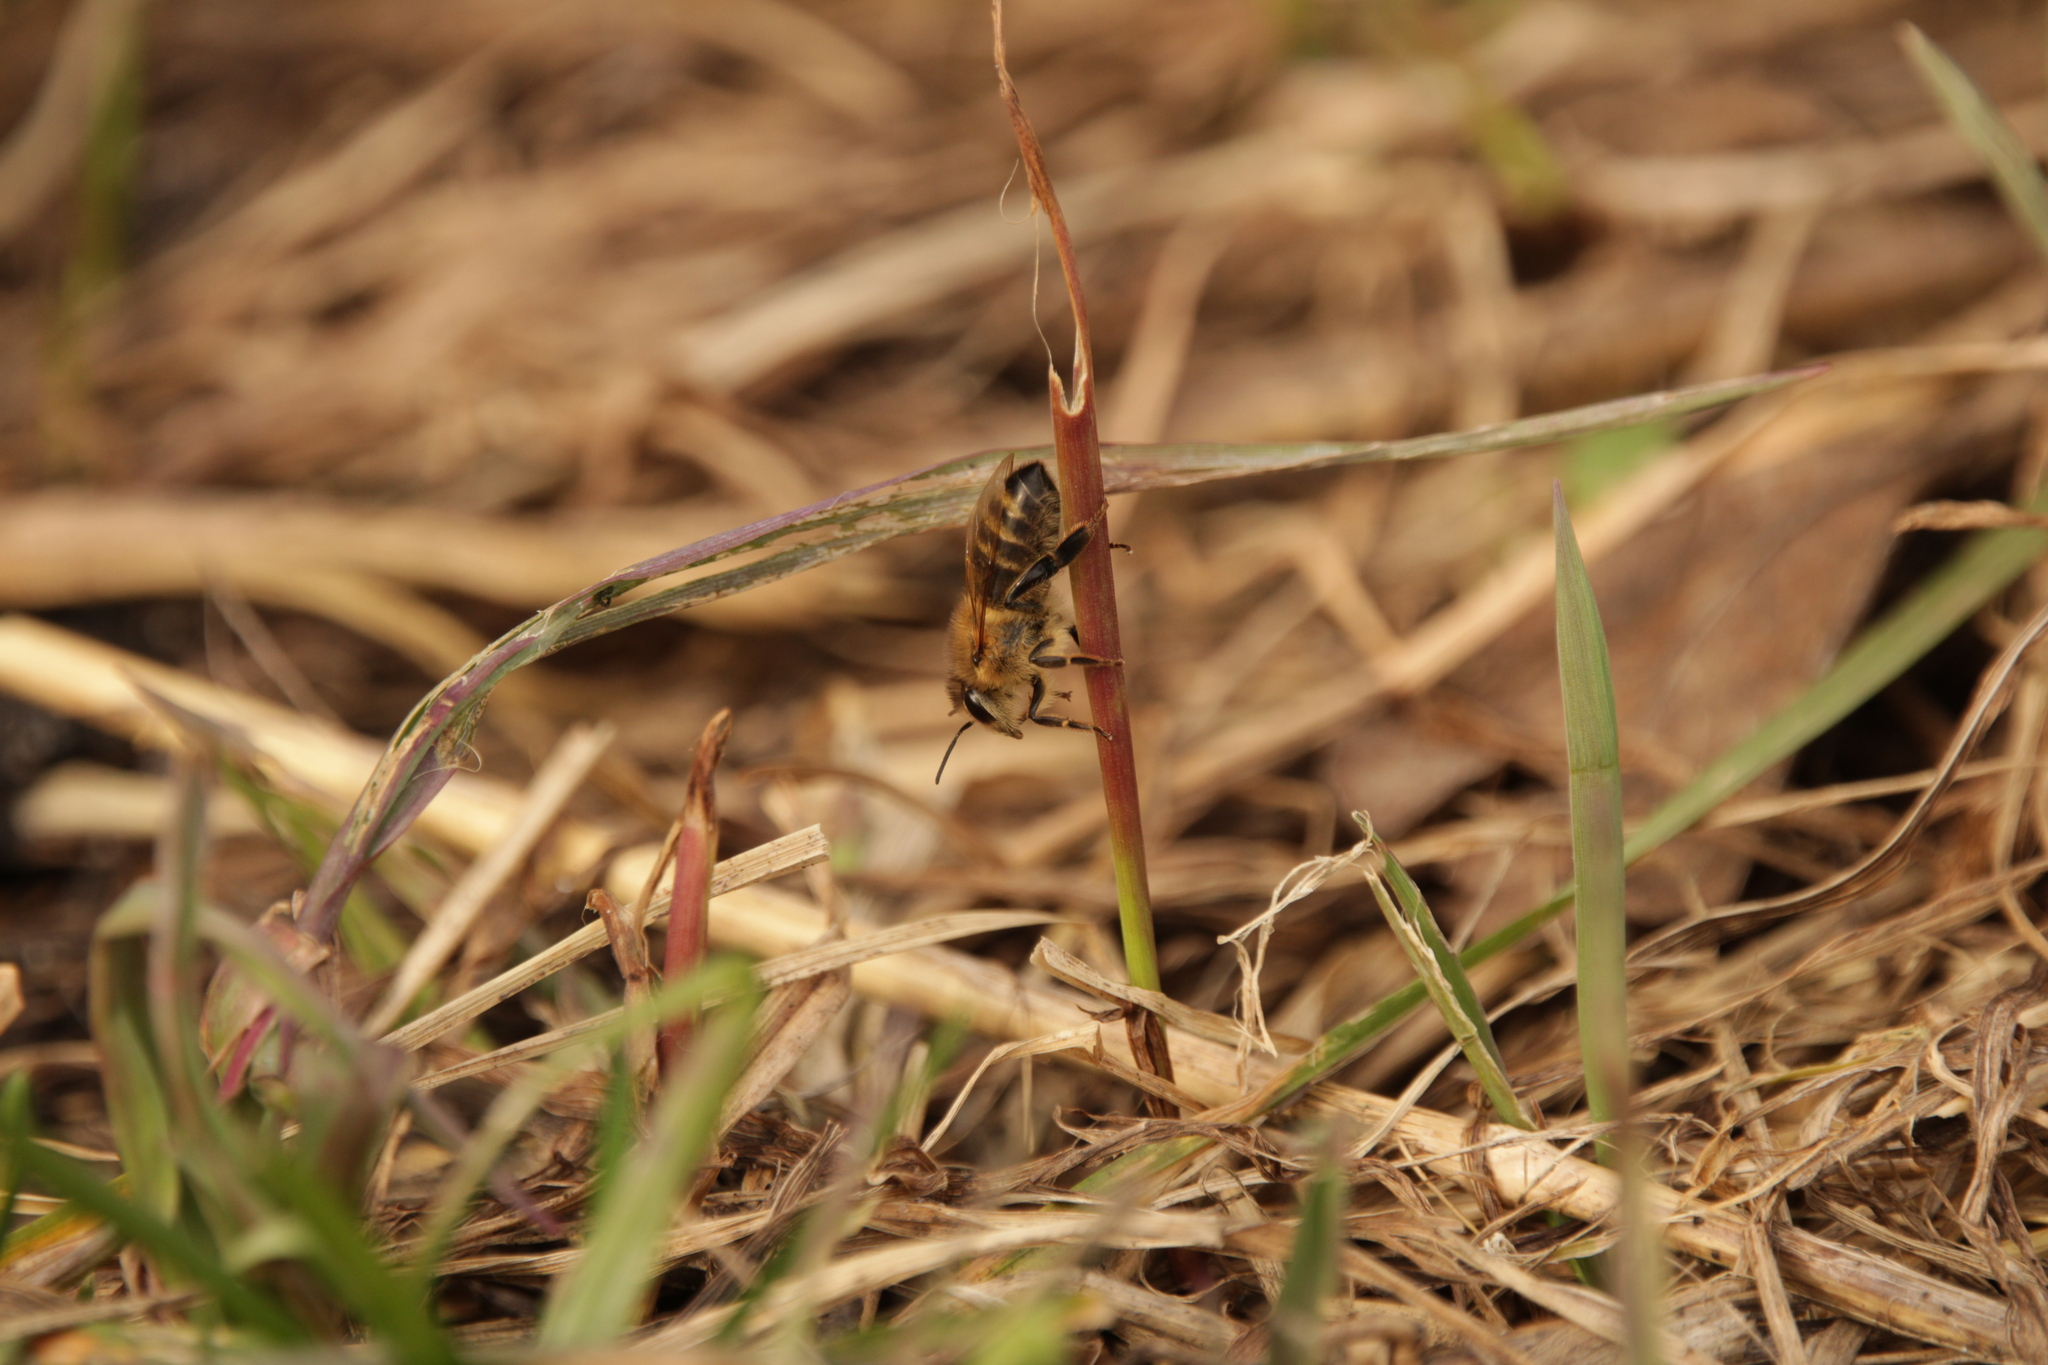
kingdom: Animalia
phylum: Arthropoda
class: Insecta
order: Hymenoptera
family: Apidae
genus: Apis
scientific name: Apis mellifera
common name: Honey bee
